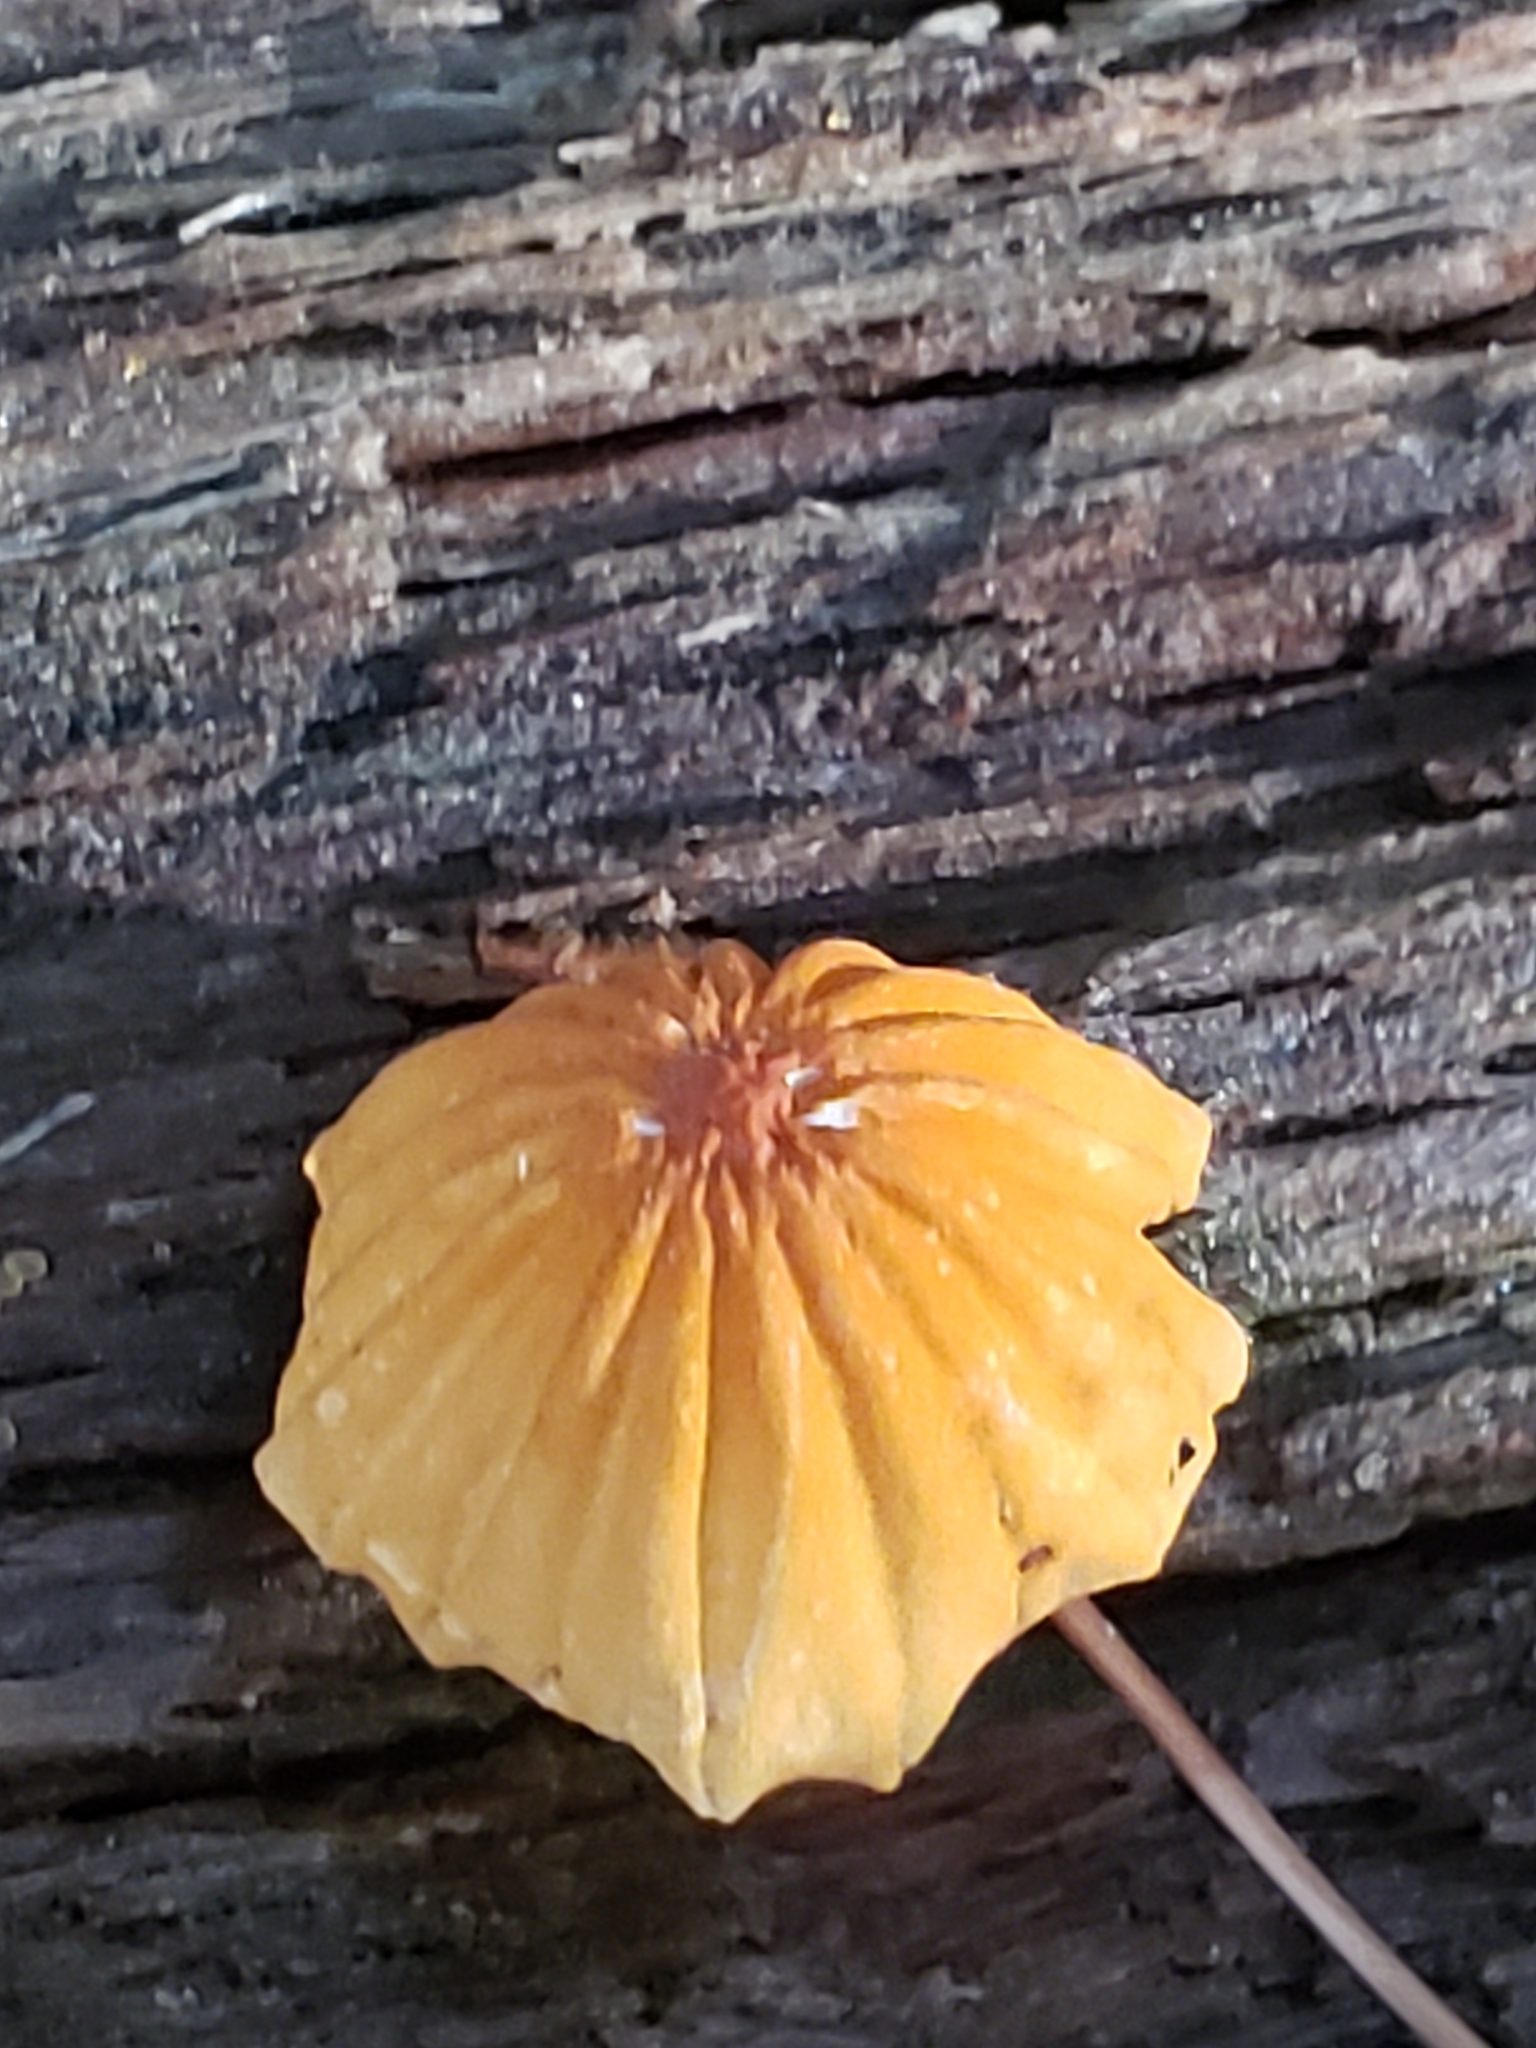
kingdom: Fungi
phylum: Basidiomycota
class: Agaricomycetes
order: Agaricales
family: Marasmiaceae
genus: Marasmius
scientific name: Marasmius siccus
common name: Orange pinwheel
